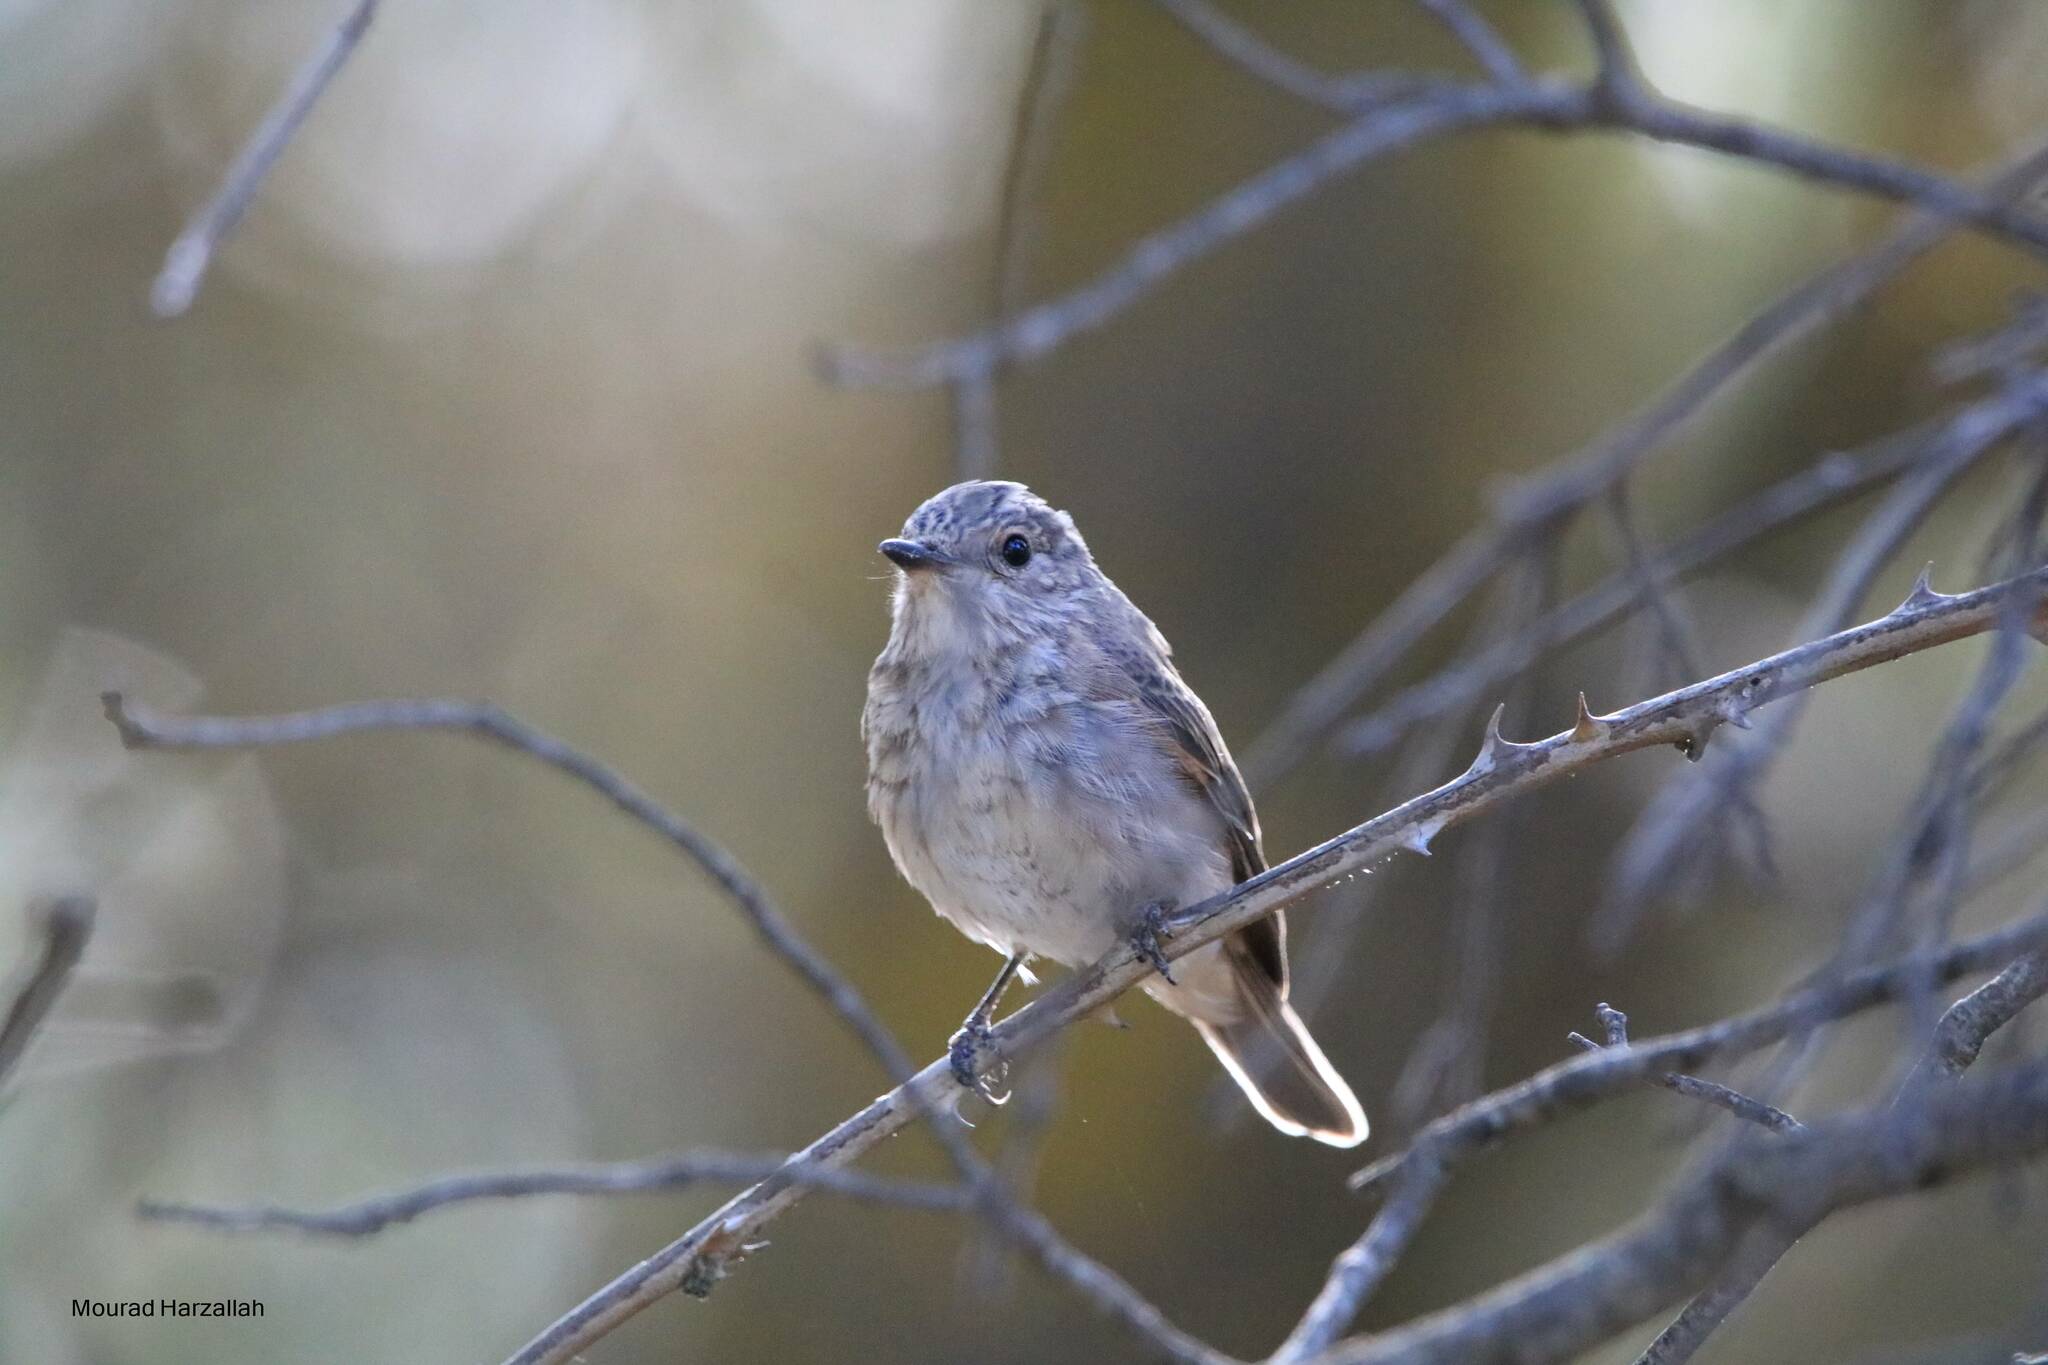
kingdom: Animalia
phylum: Chordata
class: Aves
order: Passeriformes
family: Muscicapidae
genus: Muscicapa
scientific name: Muscicapa striata
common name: Spotted flycatcher
